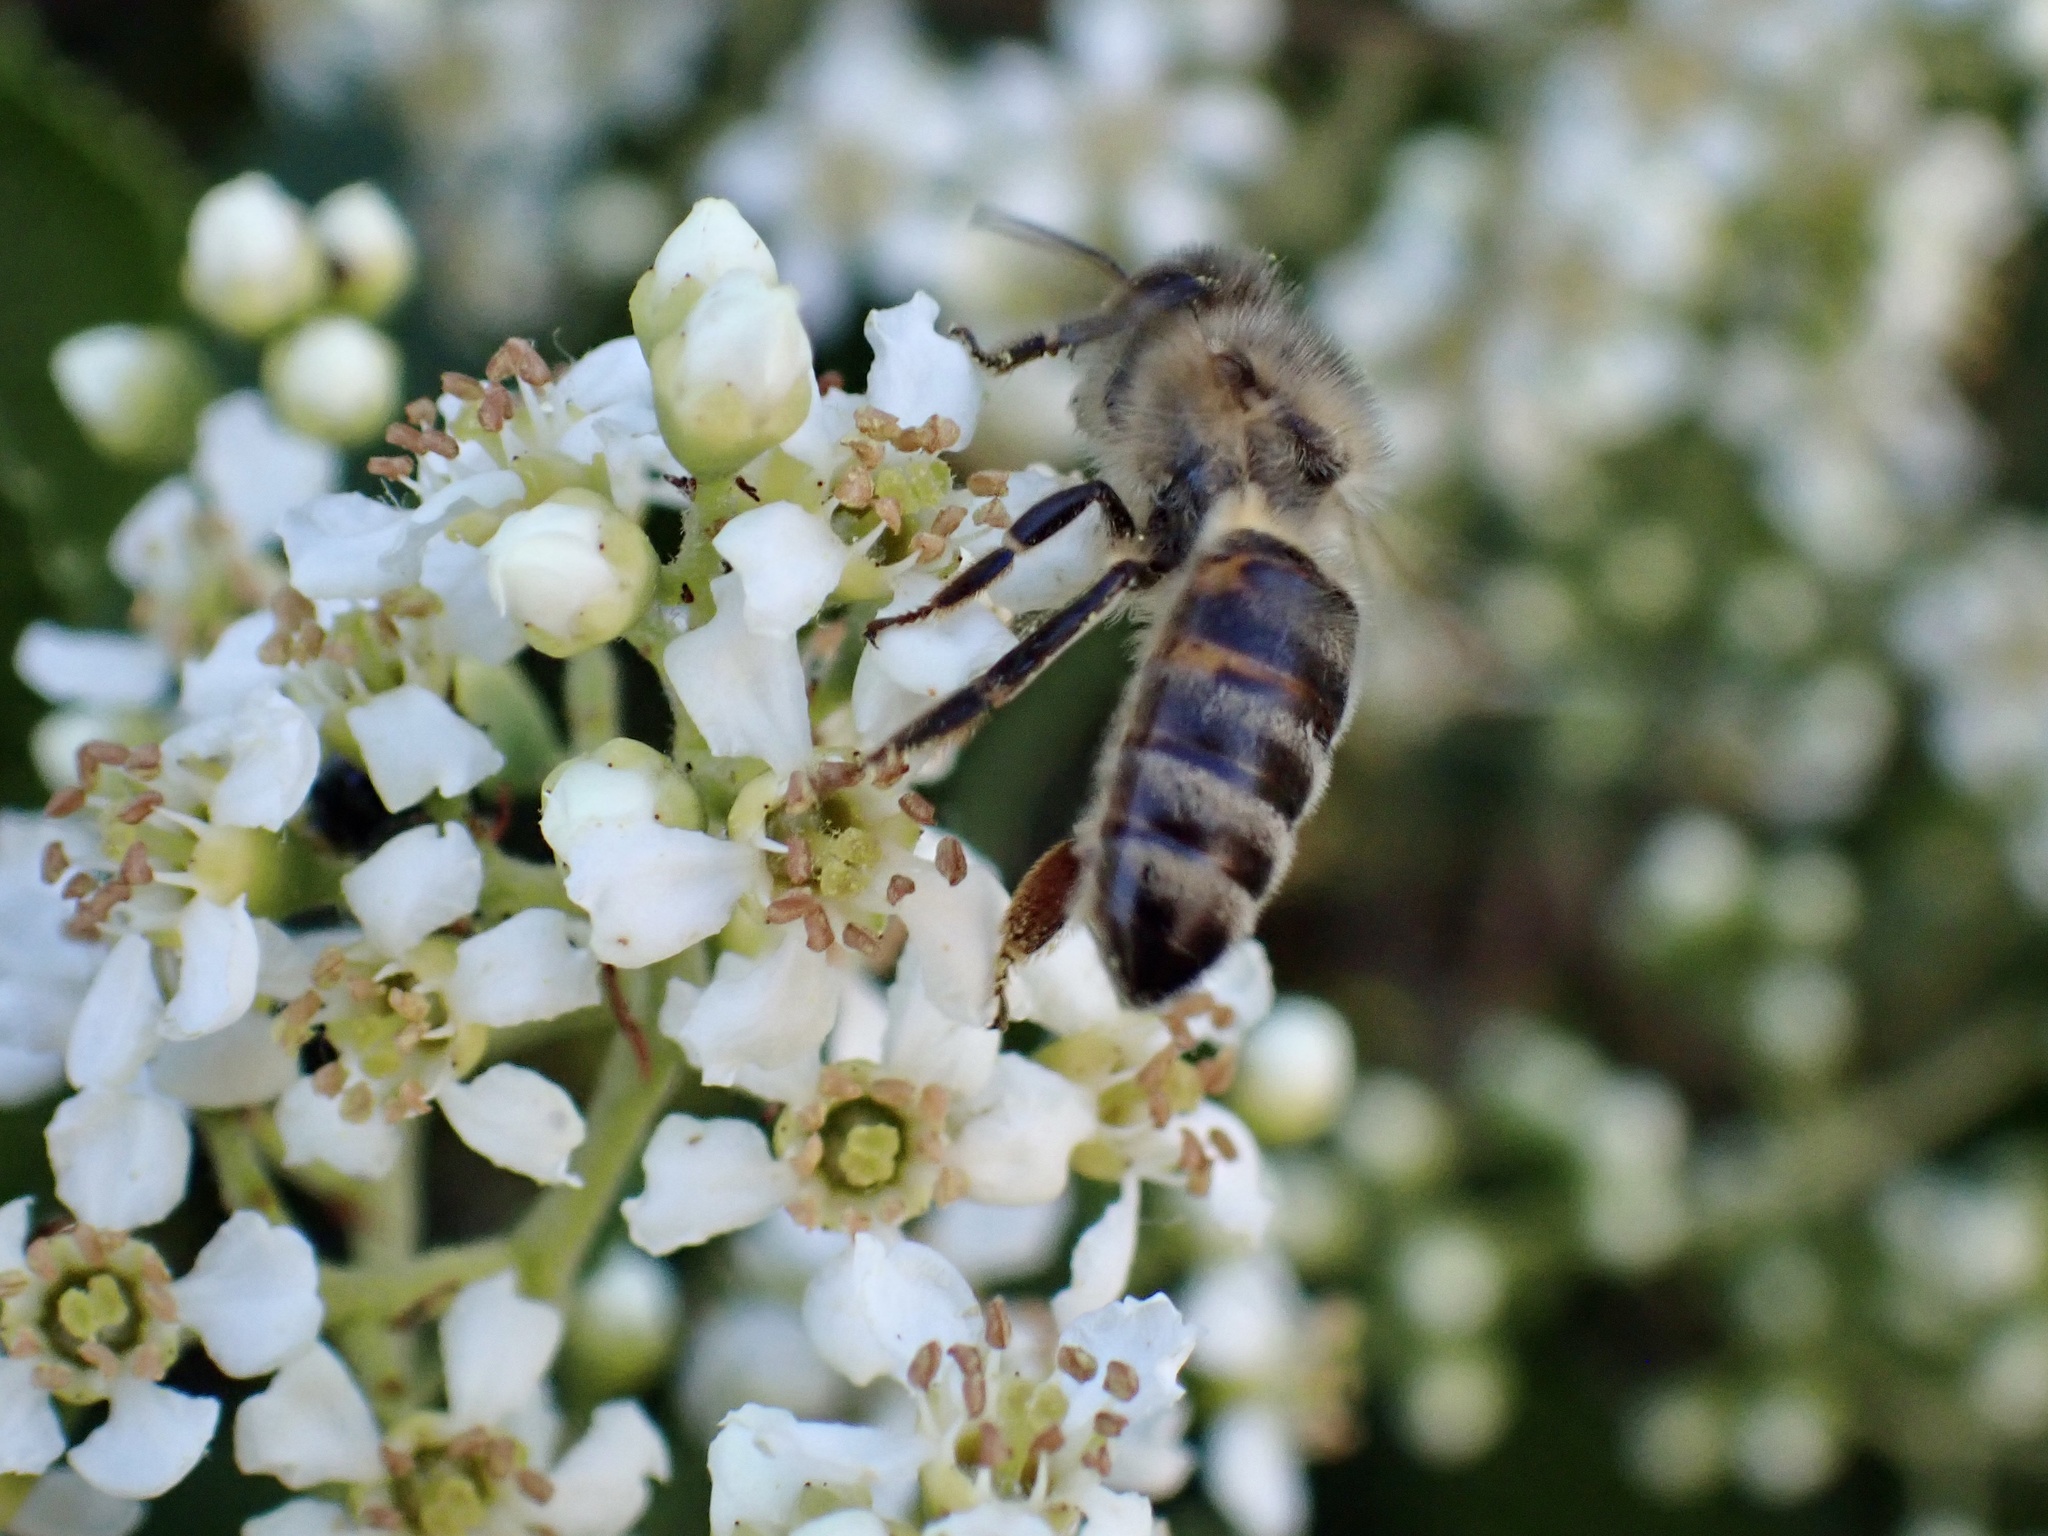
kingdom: Animalia
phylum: Arthropoda
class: Insecta
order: Hymenoptera
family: Apidae
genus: Apis
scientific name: Apis mellifera
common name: Honey bee
